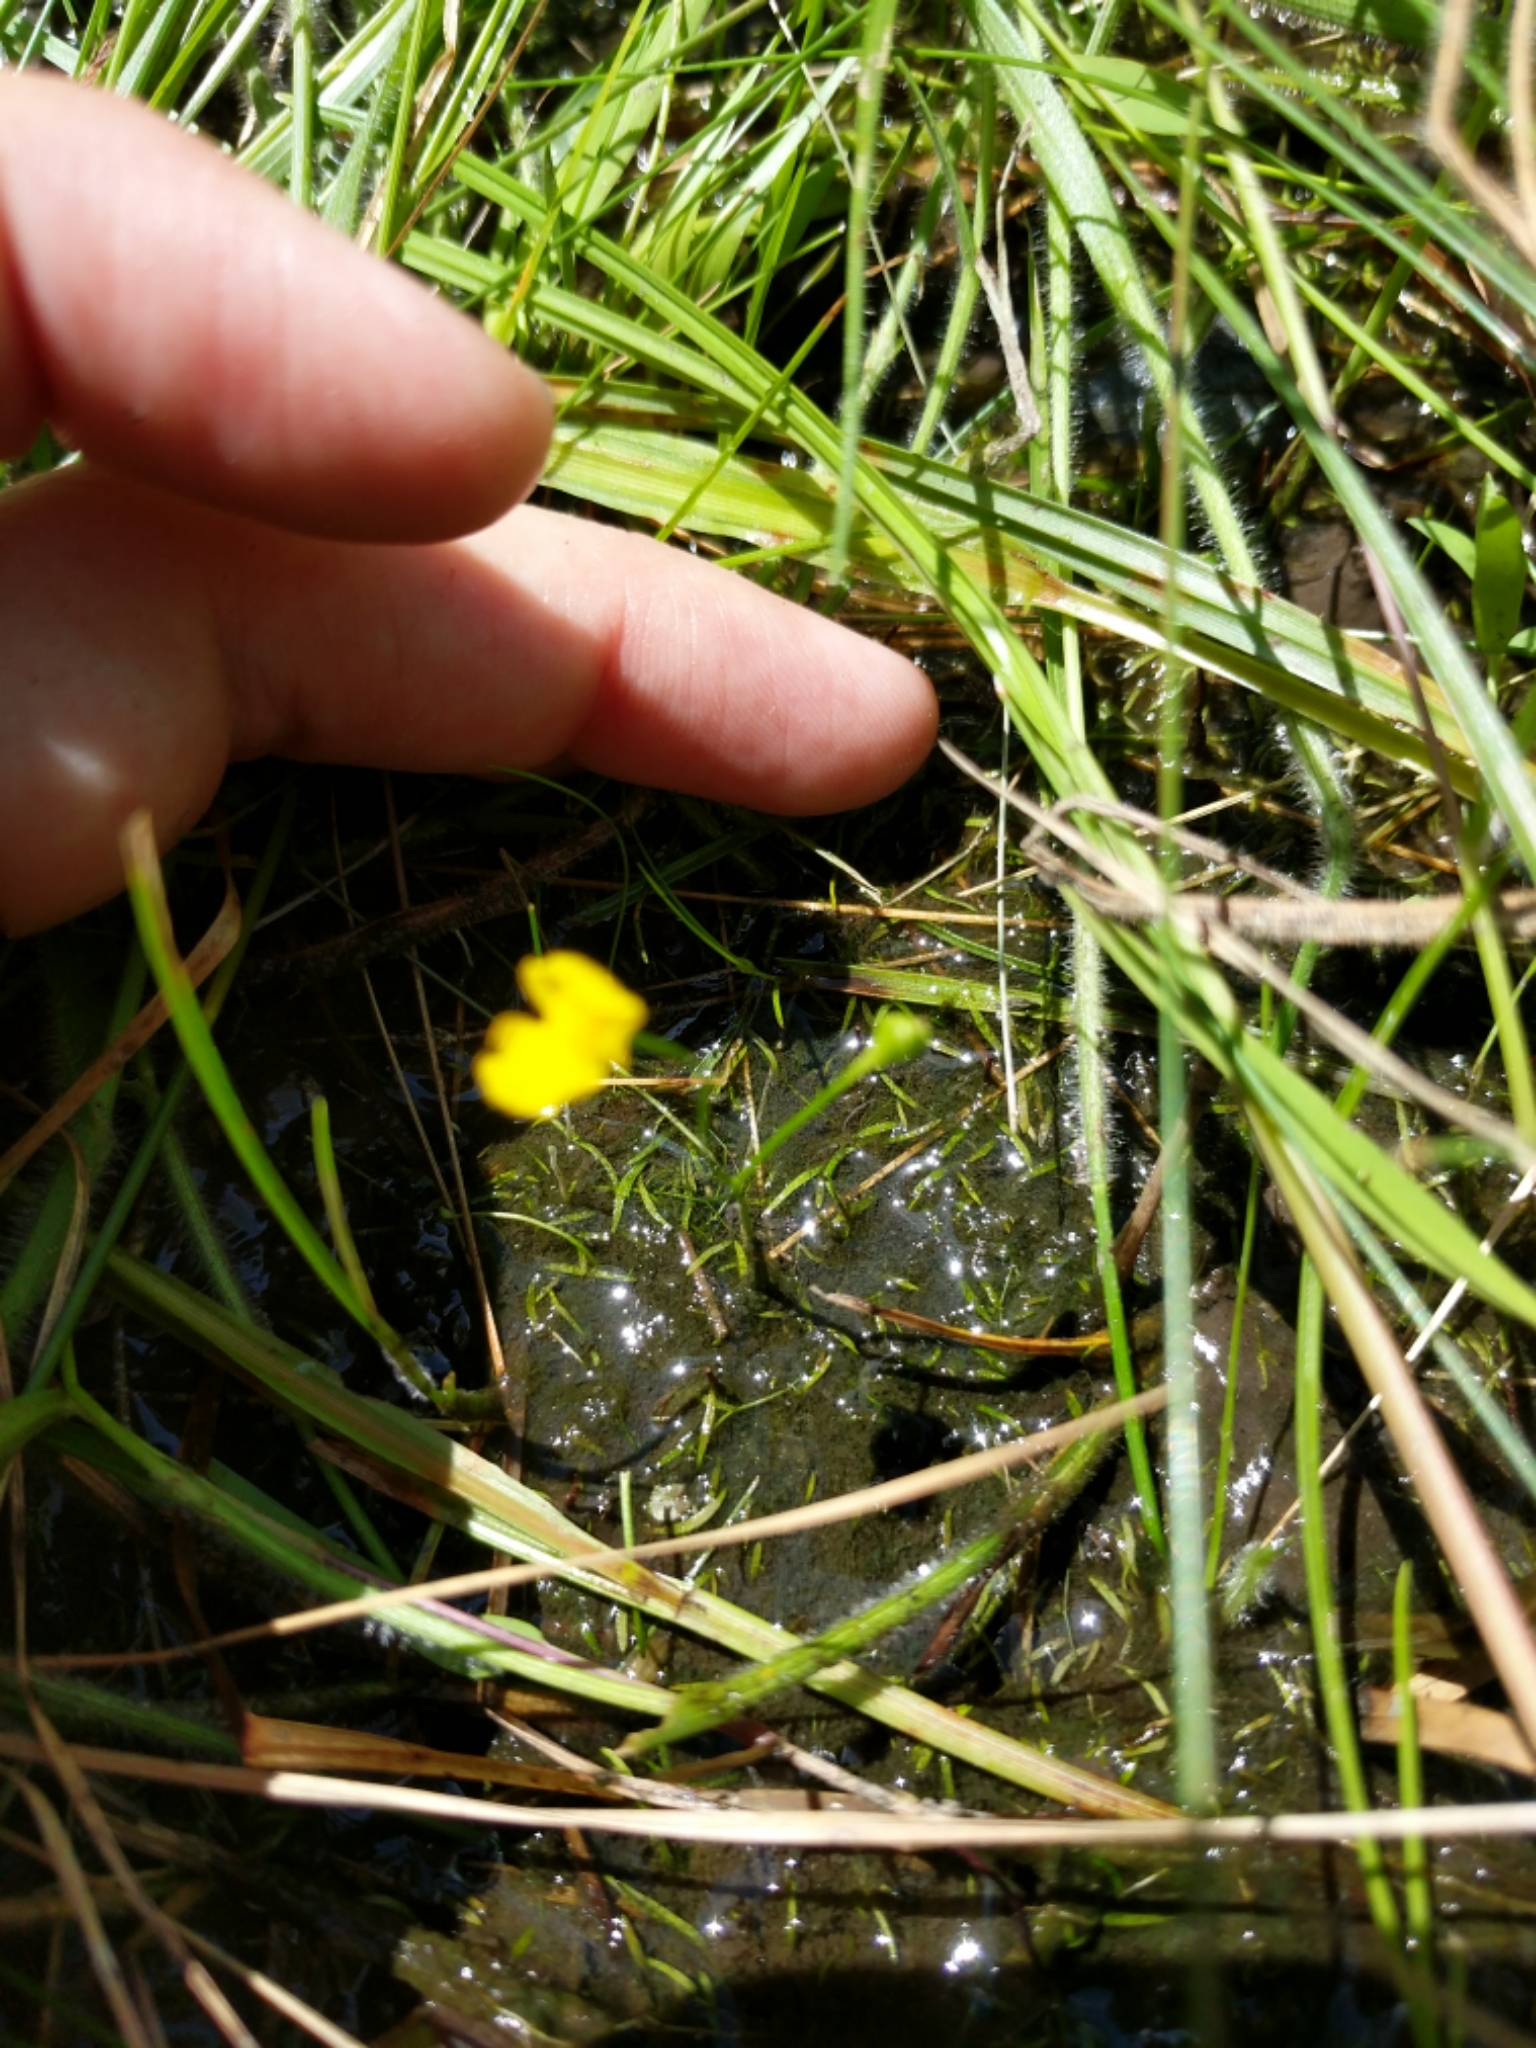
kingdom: Plantae
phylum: Tracheophyta
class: Magnoliopsida
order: Lamiales
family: Lentibulariaceae
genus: Utricularia
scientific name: Utricularia gibba
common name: Humped bladderwort
